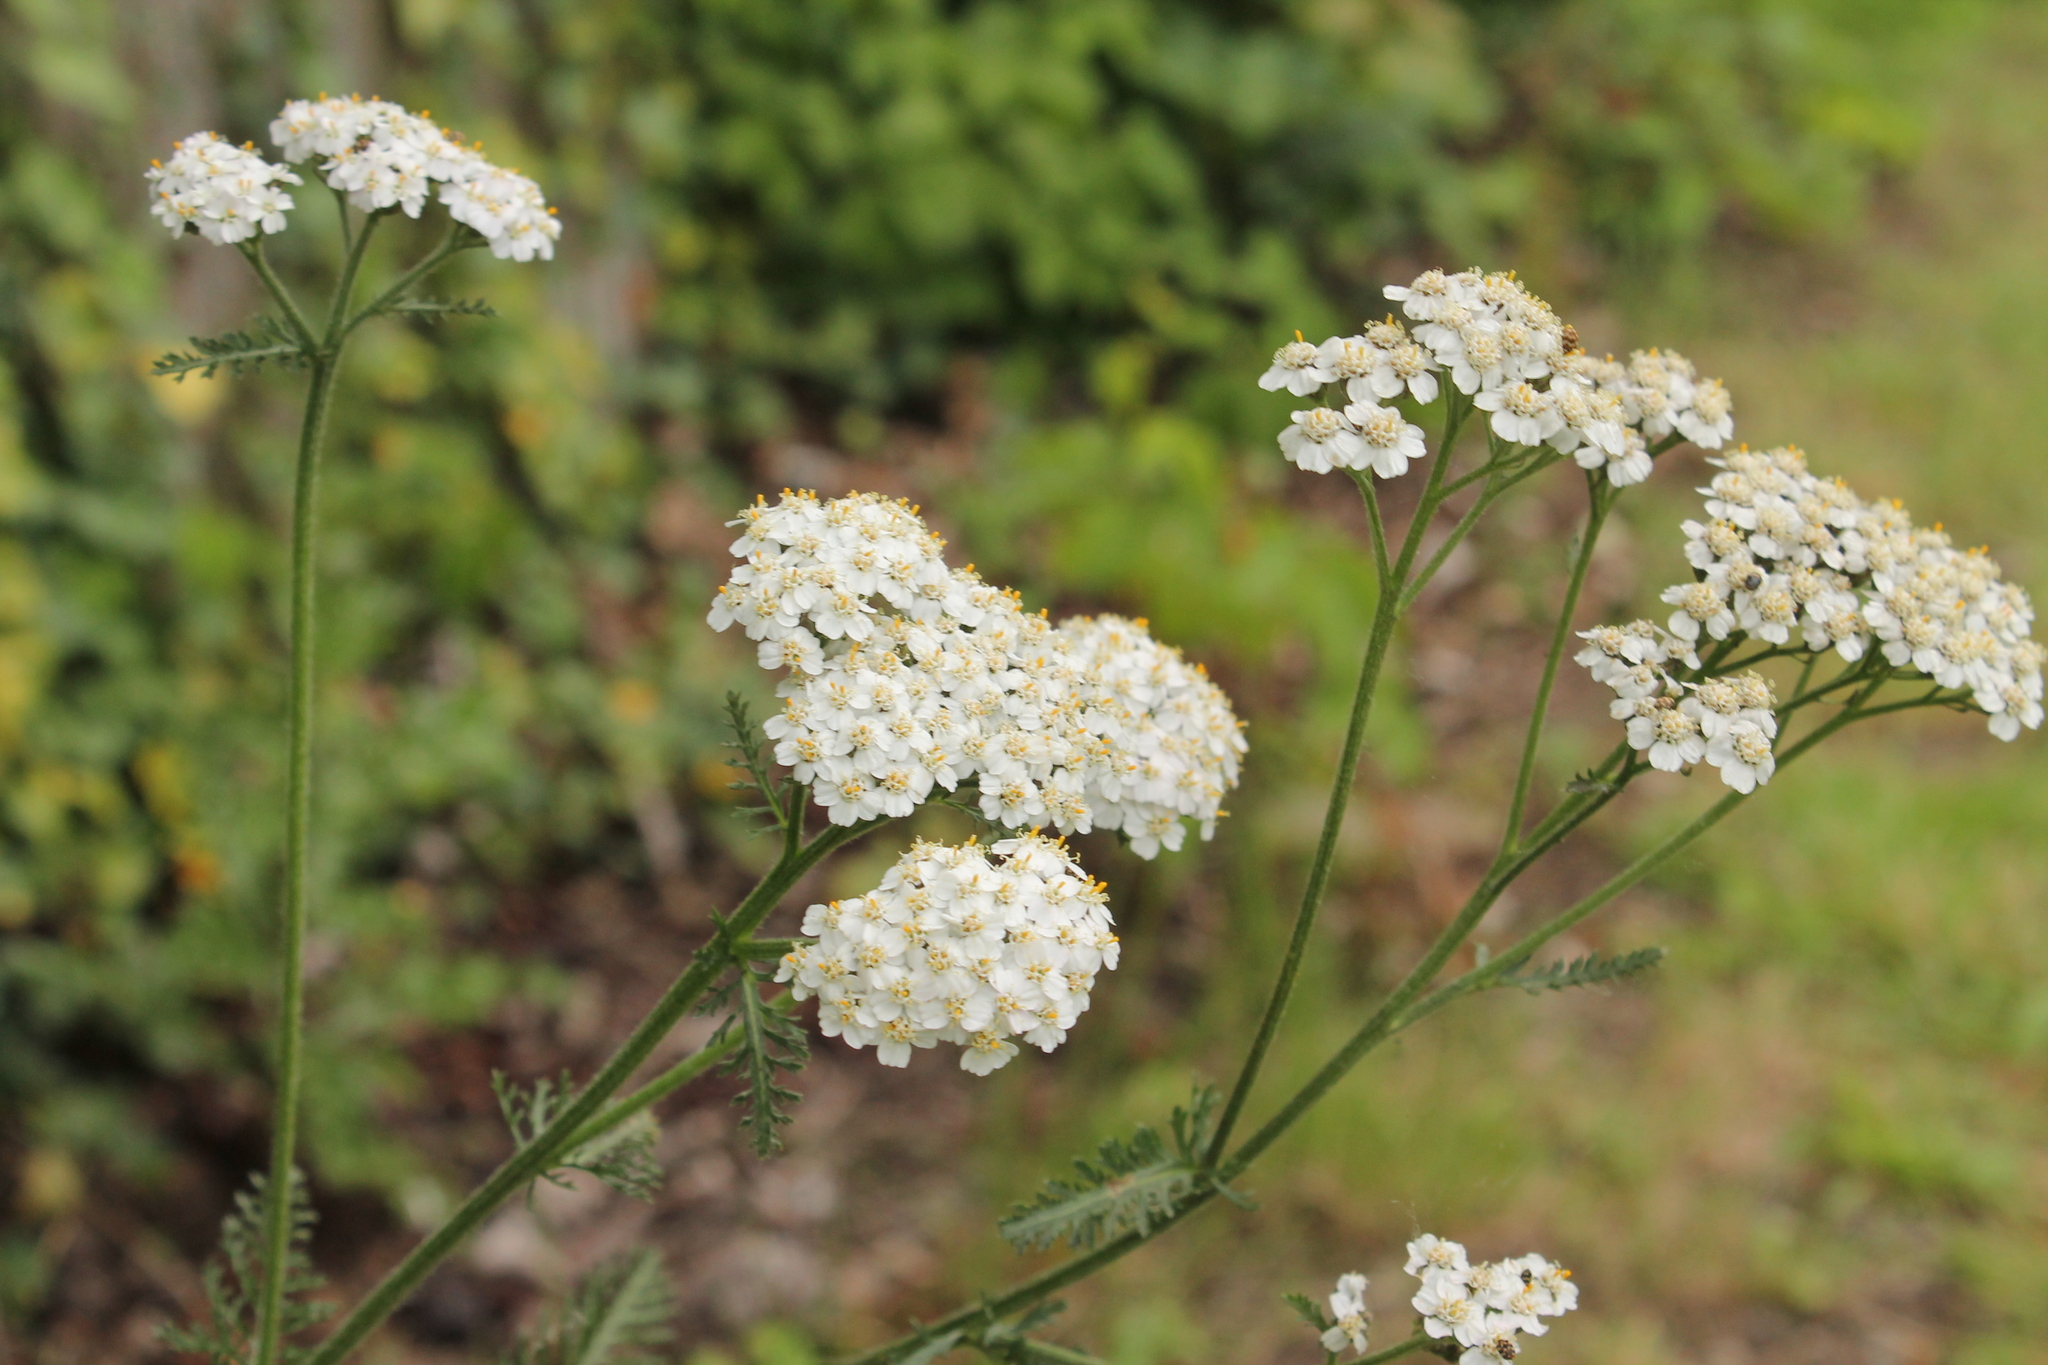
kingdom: Plantae
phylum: Tracheophyta
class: Magnoliopsida
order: Asterales
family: Asteraceae
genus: Achillea
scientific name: Achillea millefolium
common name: Yarrow
